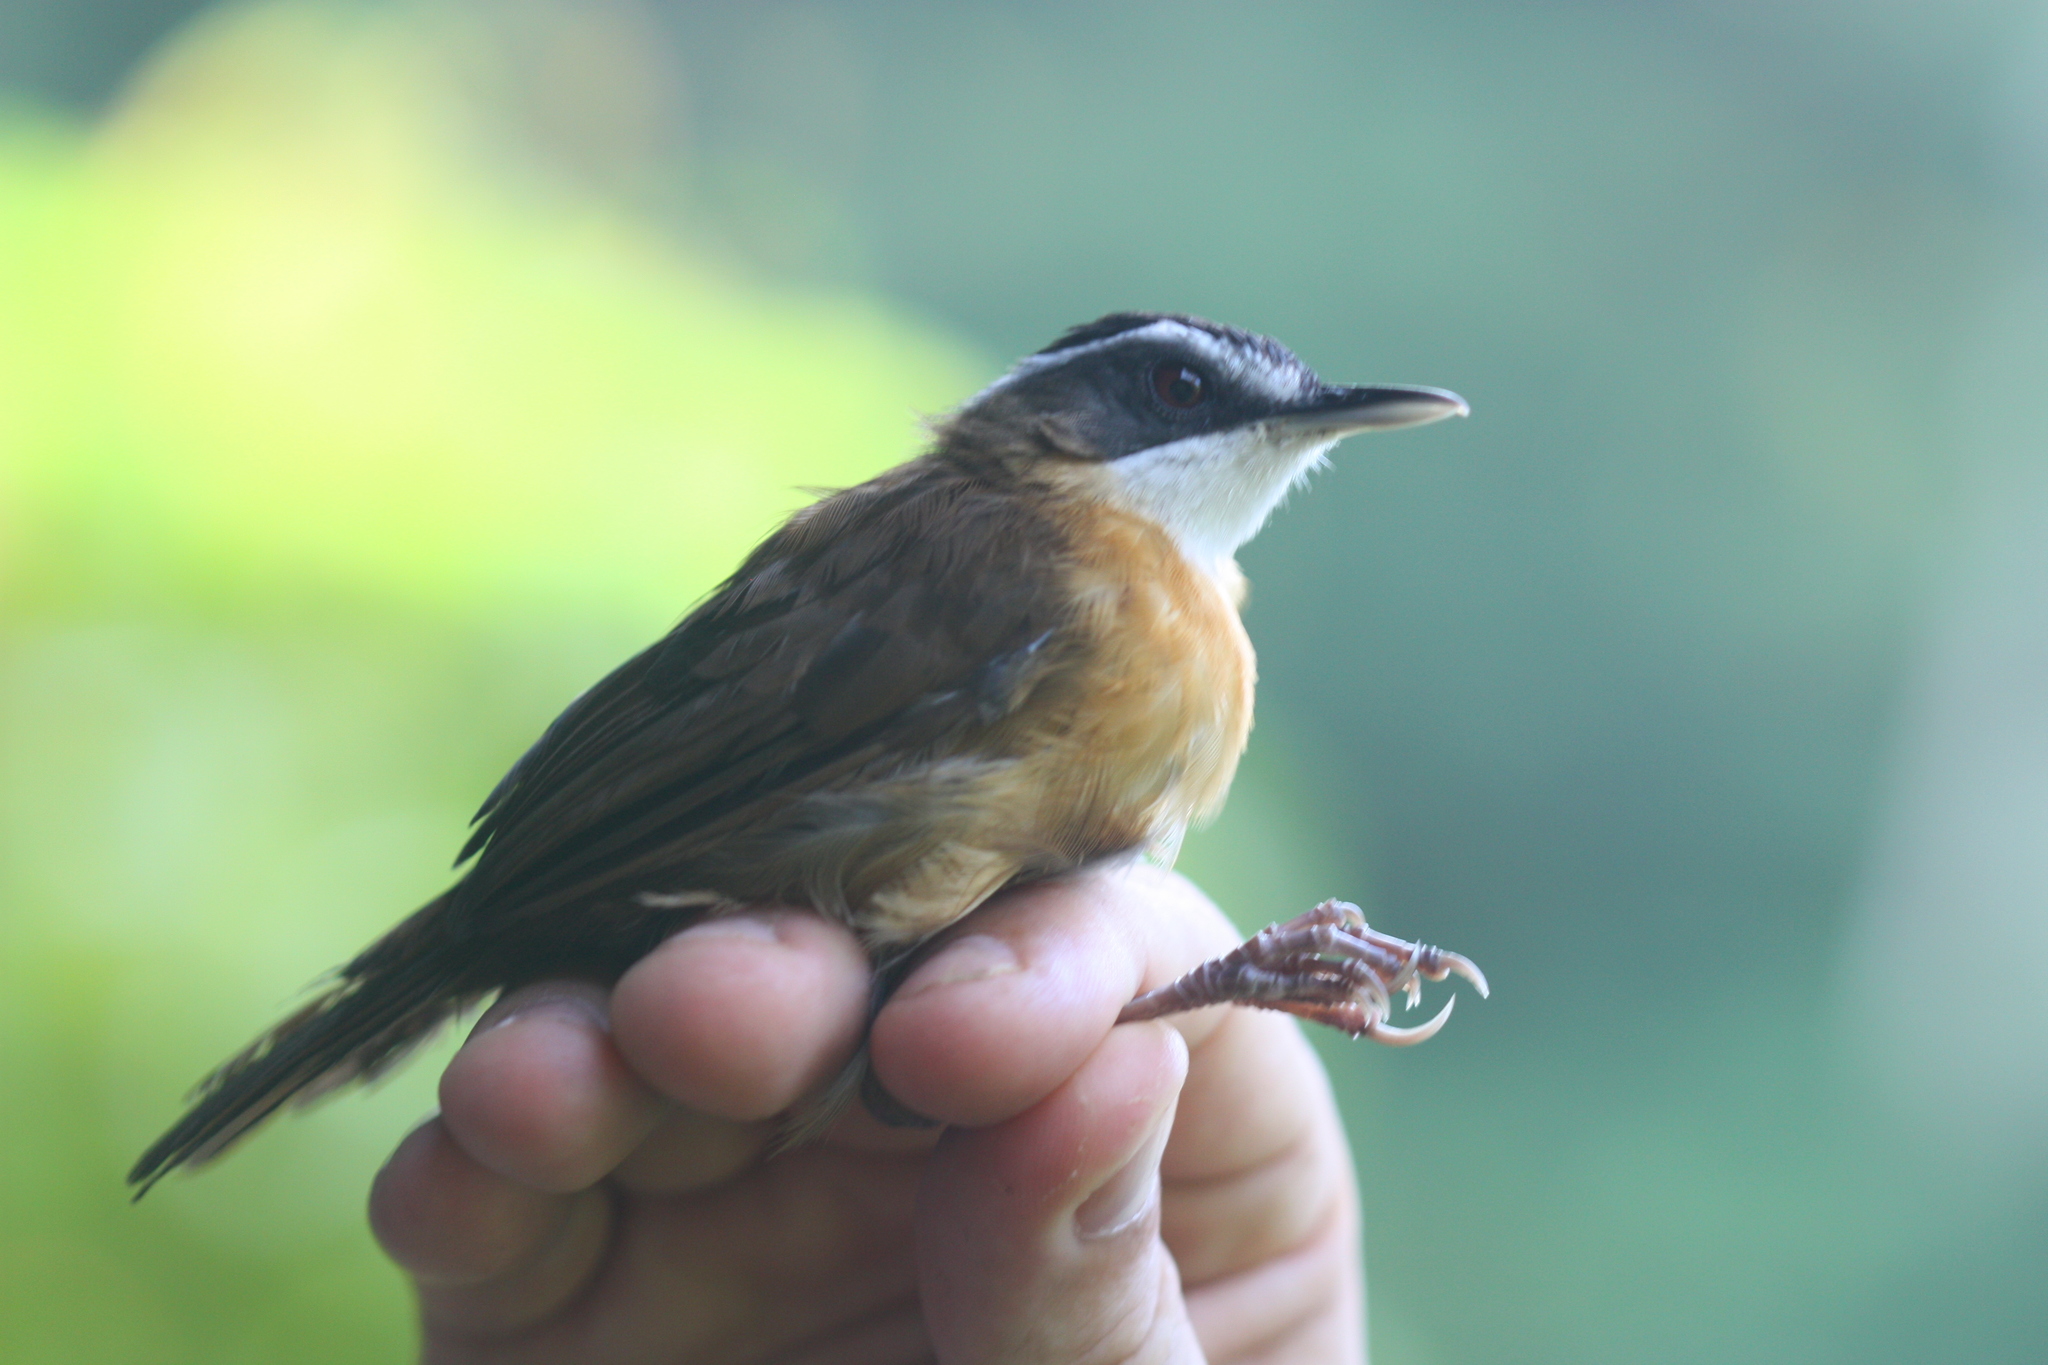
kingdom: Animalia
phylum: Chordata
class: Aves
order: Passeriformes
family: Pellorneidae
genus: Pellorneum
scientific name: Pellorneum capistratum
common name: Black-capped babbler
